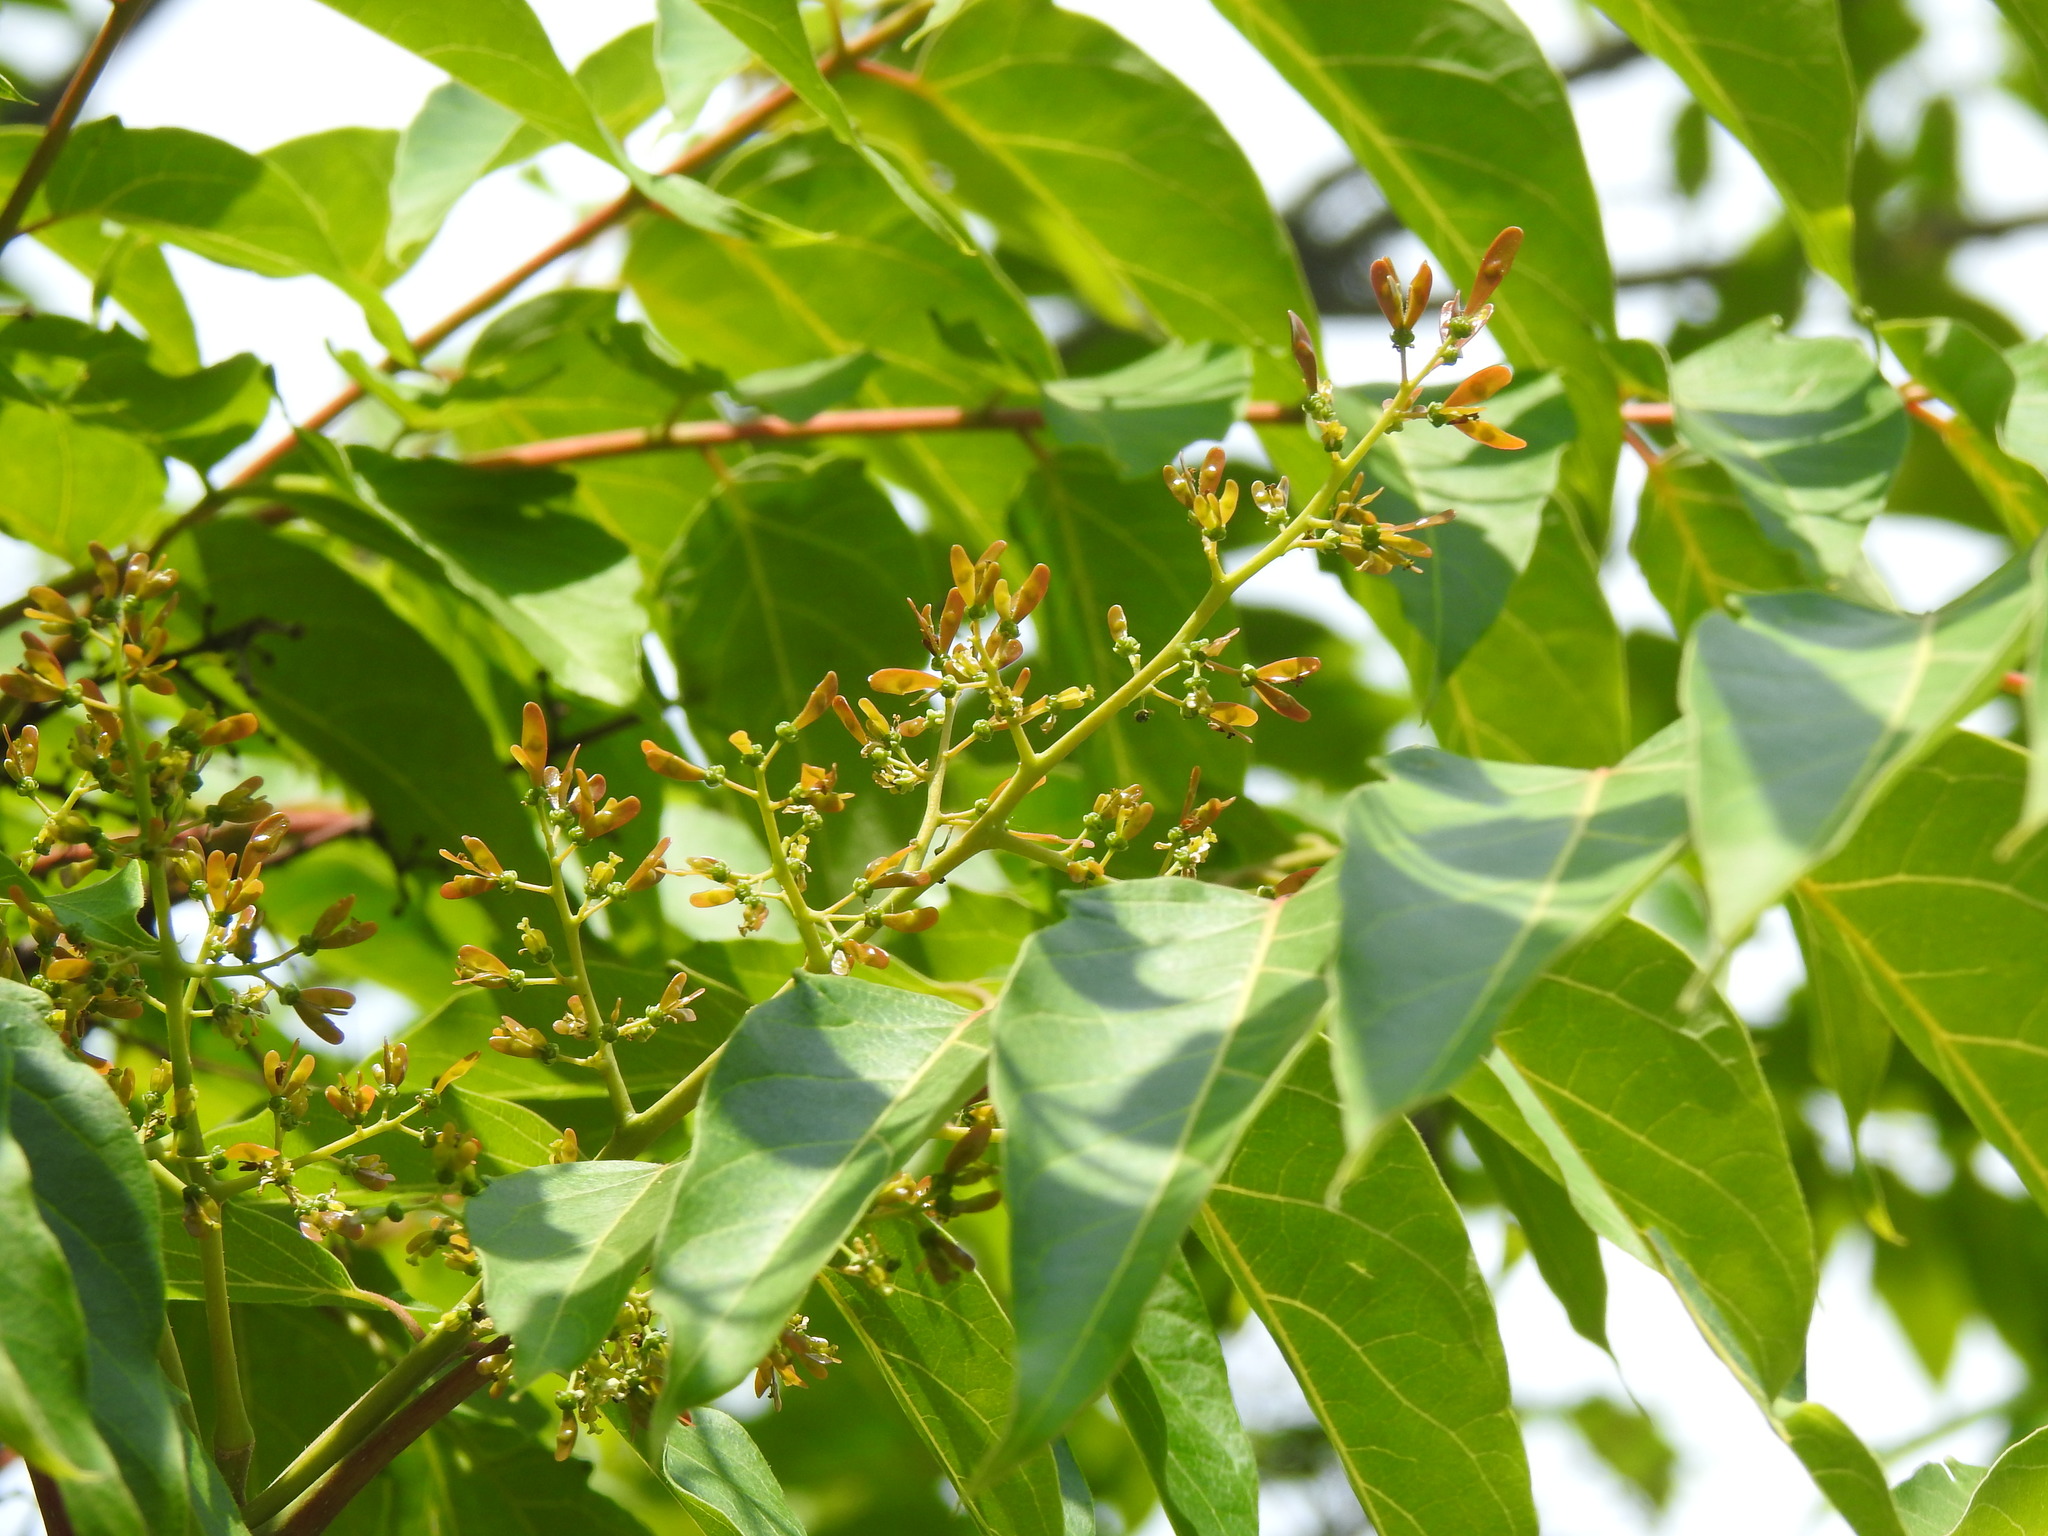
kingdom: Plantae
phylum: Tracheophyta
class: Magnoliopsida
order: Sapindales
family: Simaroubaceae
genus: Ailanthus
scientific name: Ailanthus altissima
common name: Tree-of-heaven
